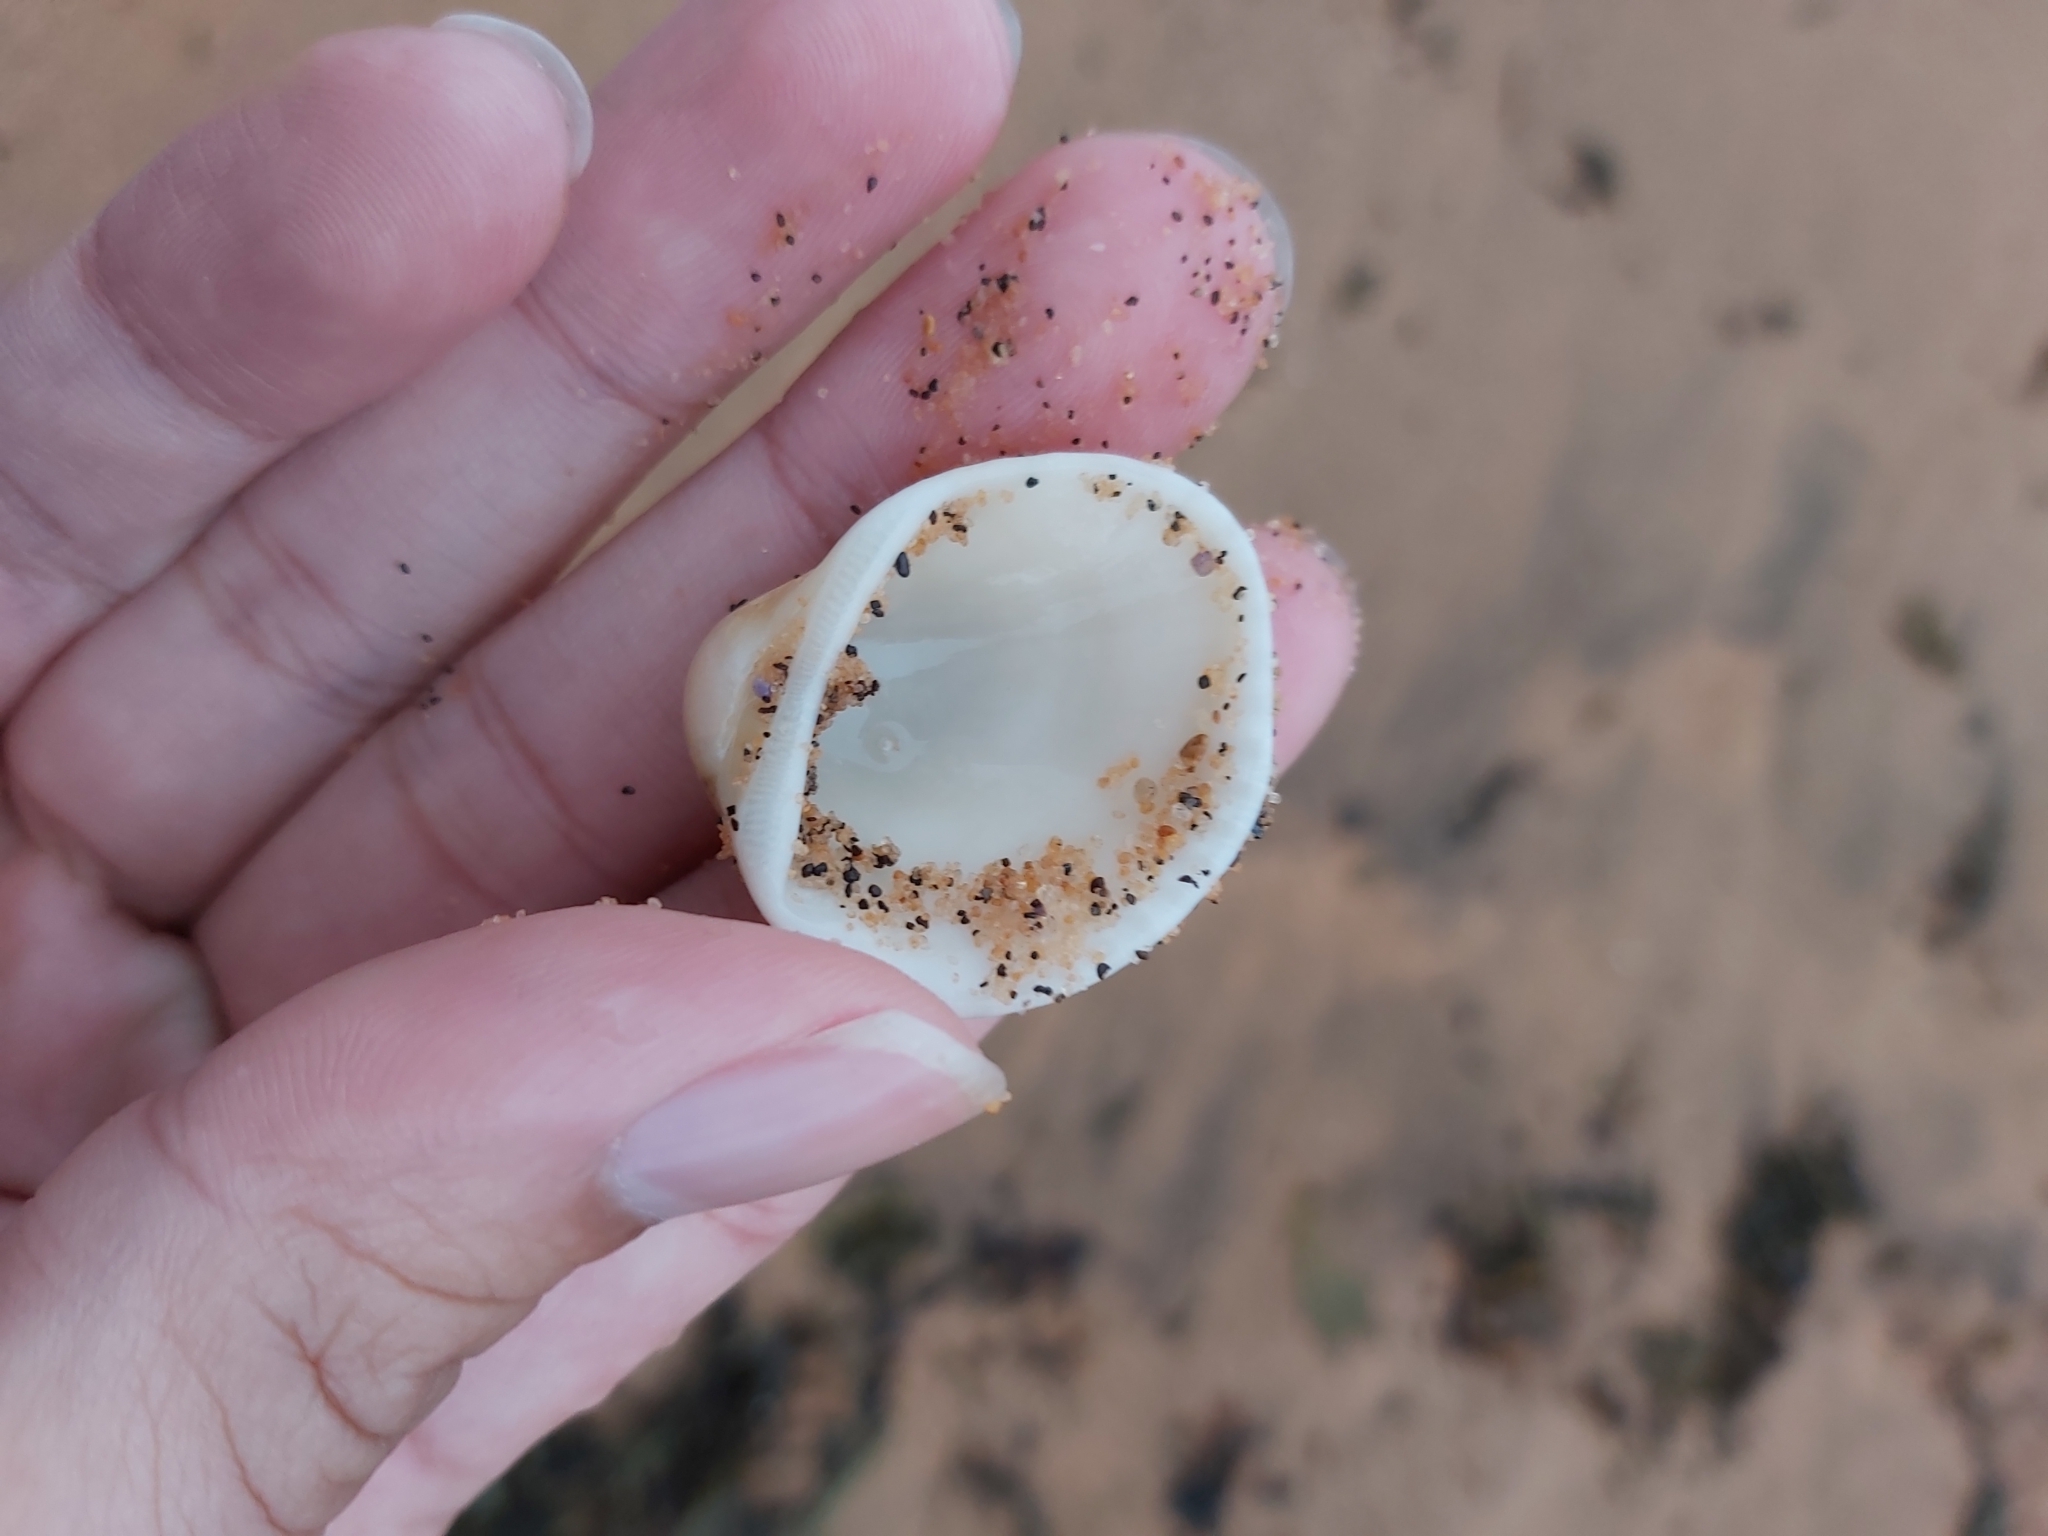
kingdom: Animalia
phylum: Mollusca
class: Bivalvia
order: Arcida
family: Arcidae
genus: Anadara
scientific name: Anadara trapezia
